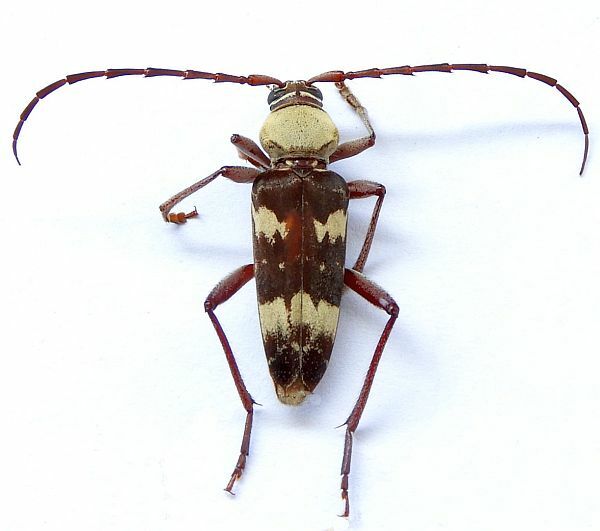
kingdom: Animalia
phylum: Arthropoda
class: Insecta
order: Coleoptera
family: Cerambycidae
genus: Megacyllene
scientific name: Megacyllene antennata
